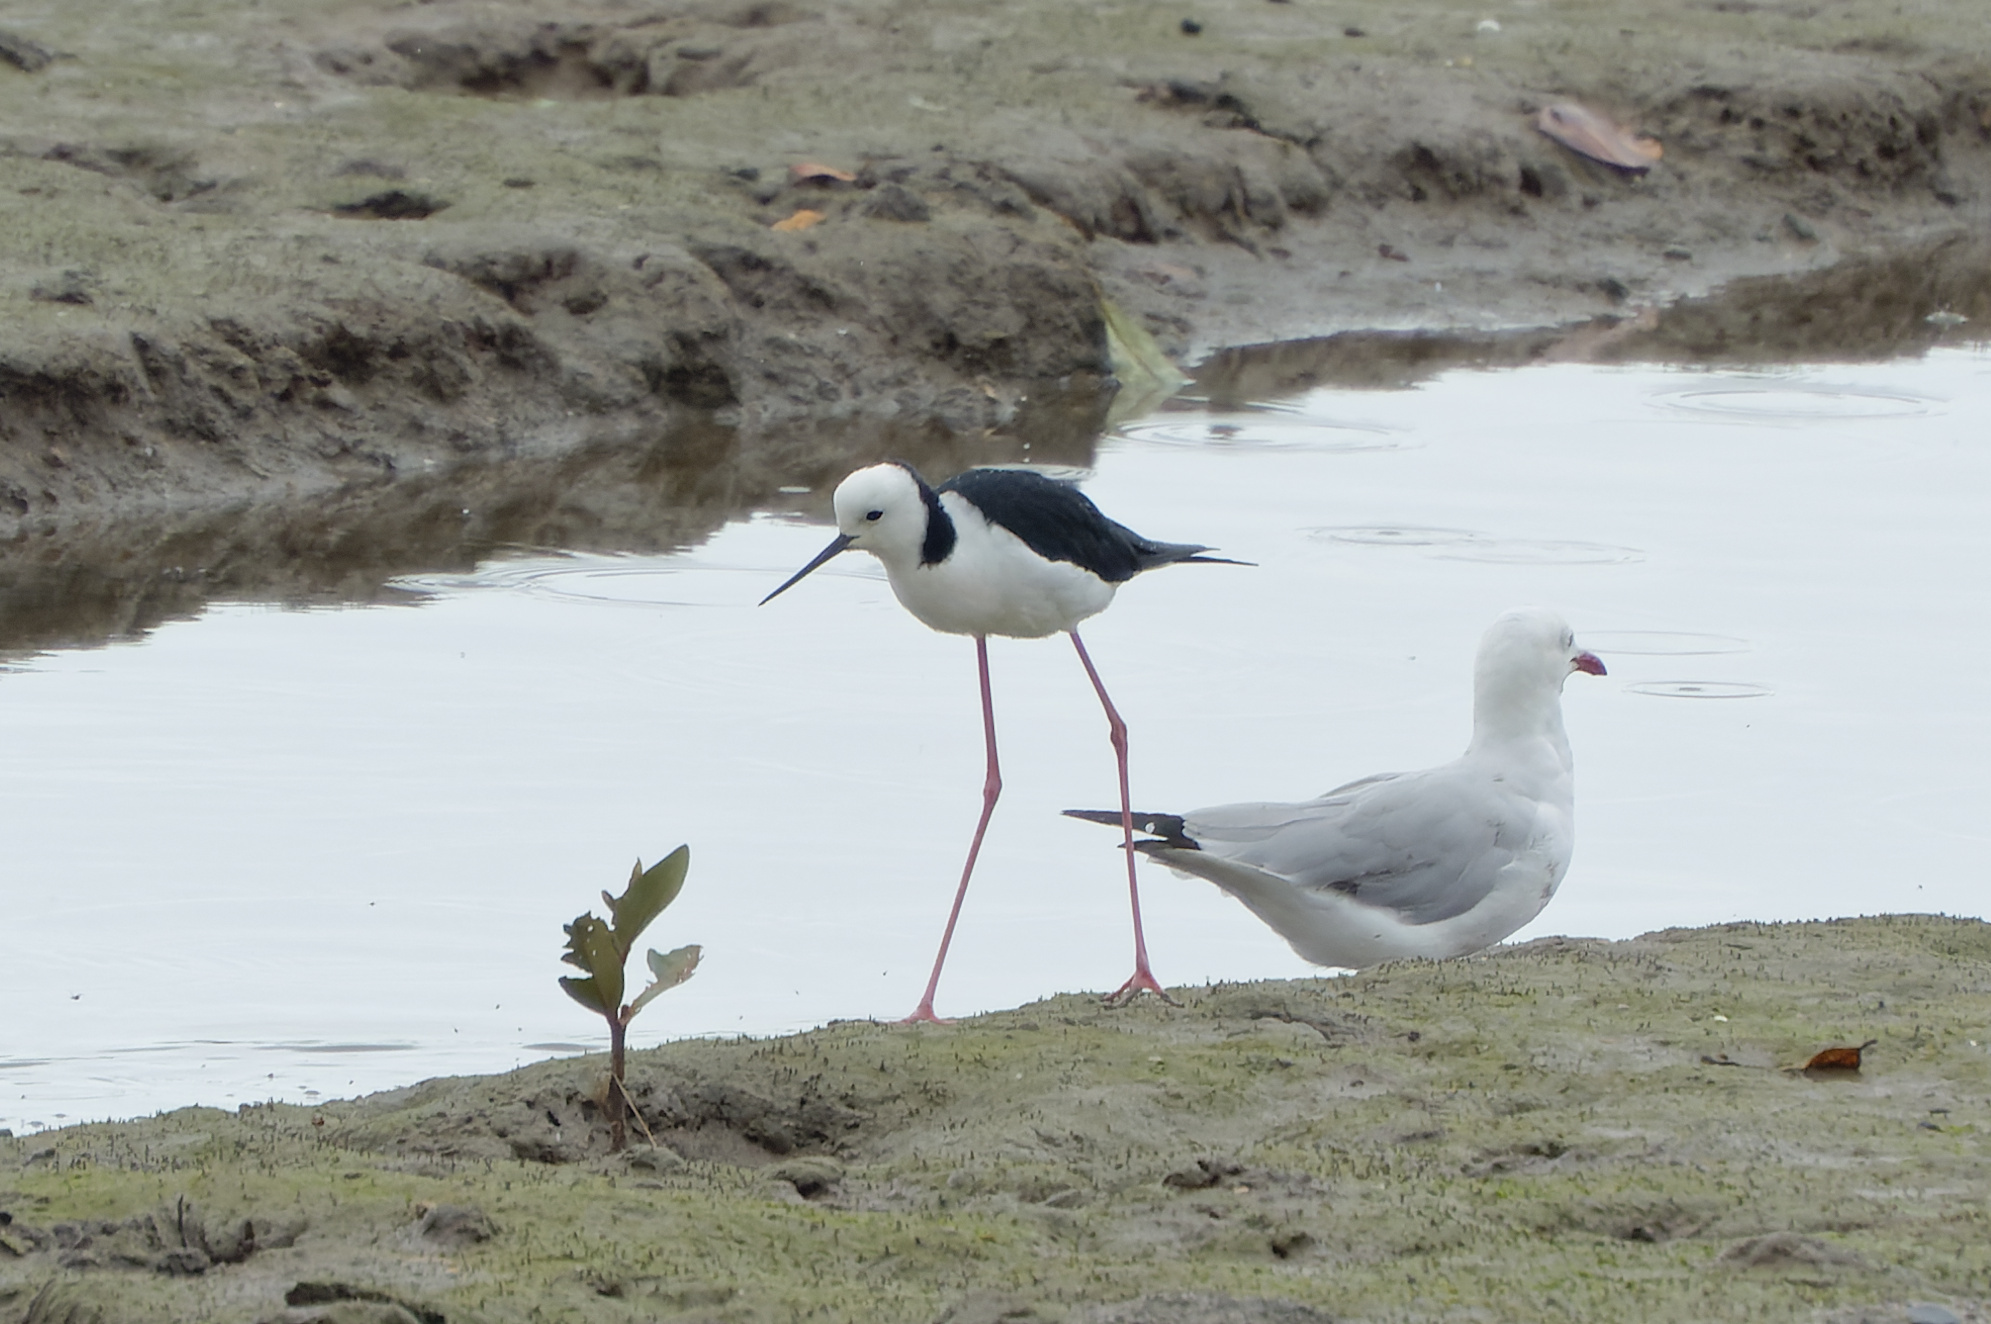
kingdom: Animalia
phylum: Chordata
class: Aves
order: Charadriiformes
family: Recurvirostridae
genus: Himantopus
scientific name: Himantopus leucocephalus
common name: White-headed stilt
